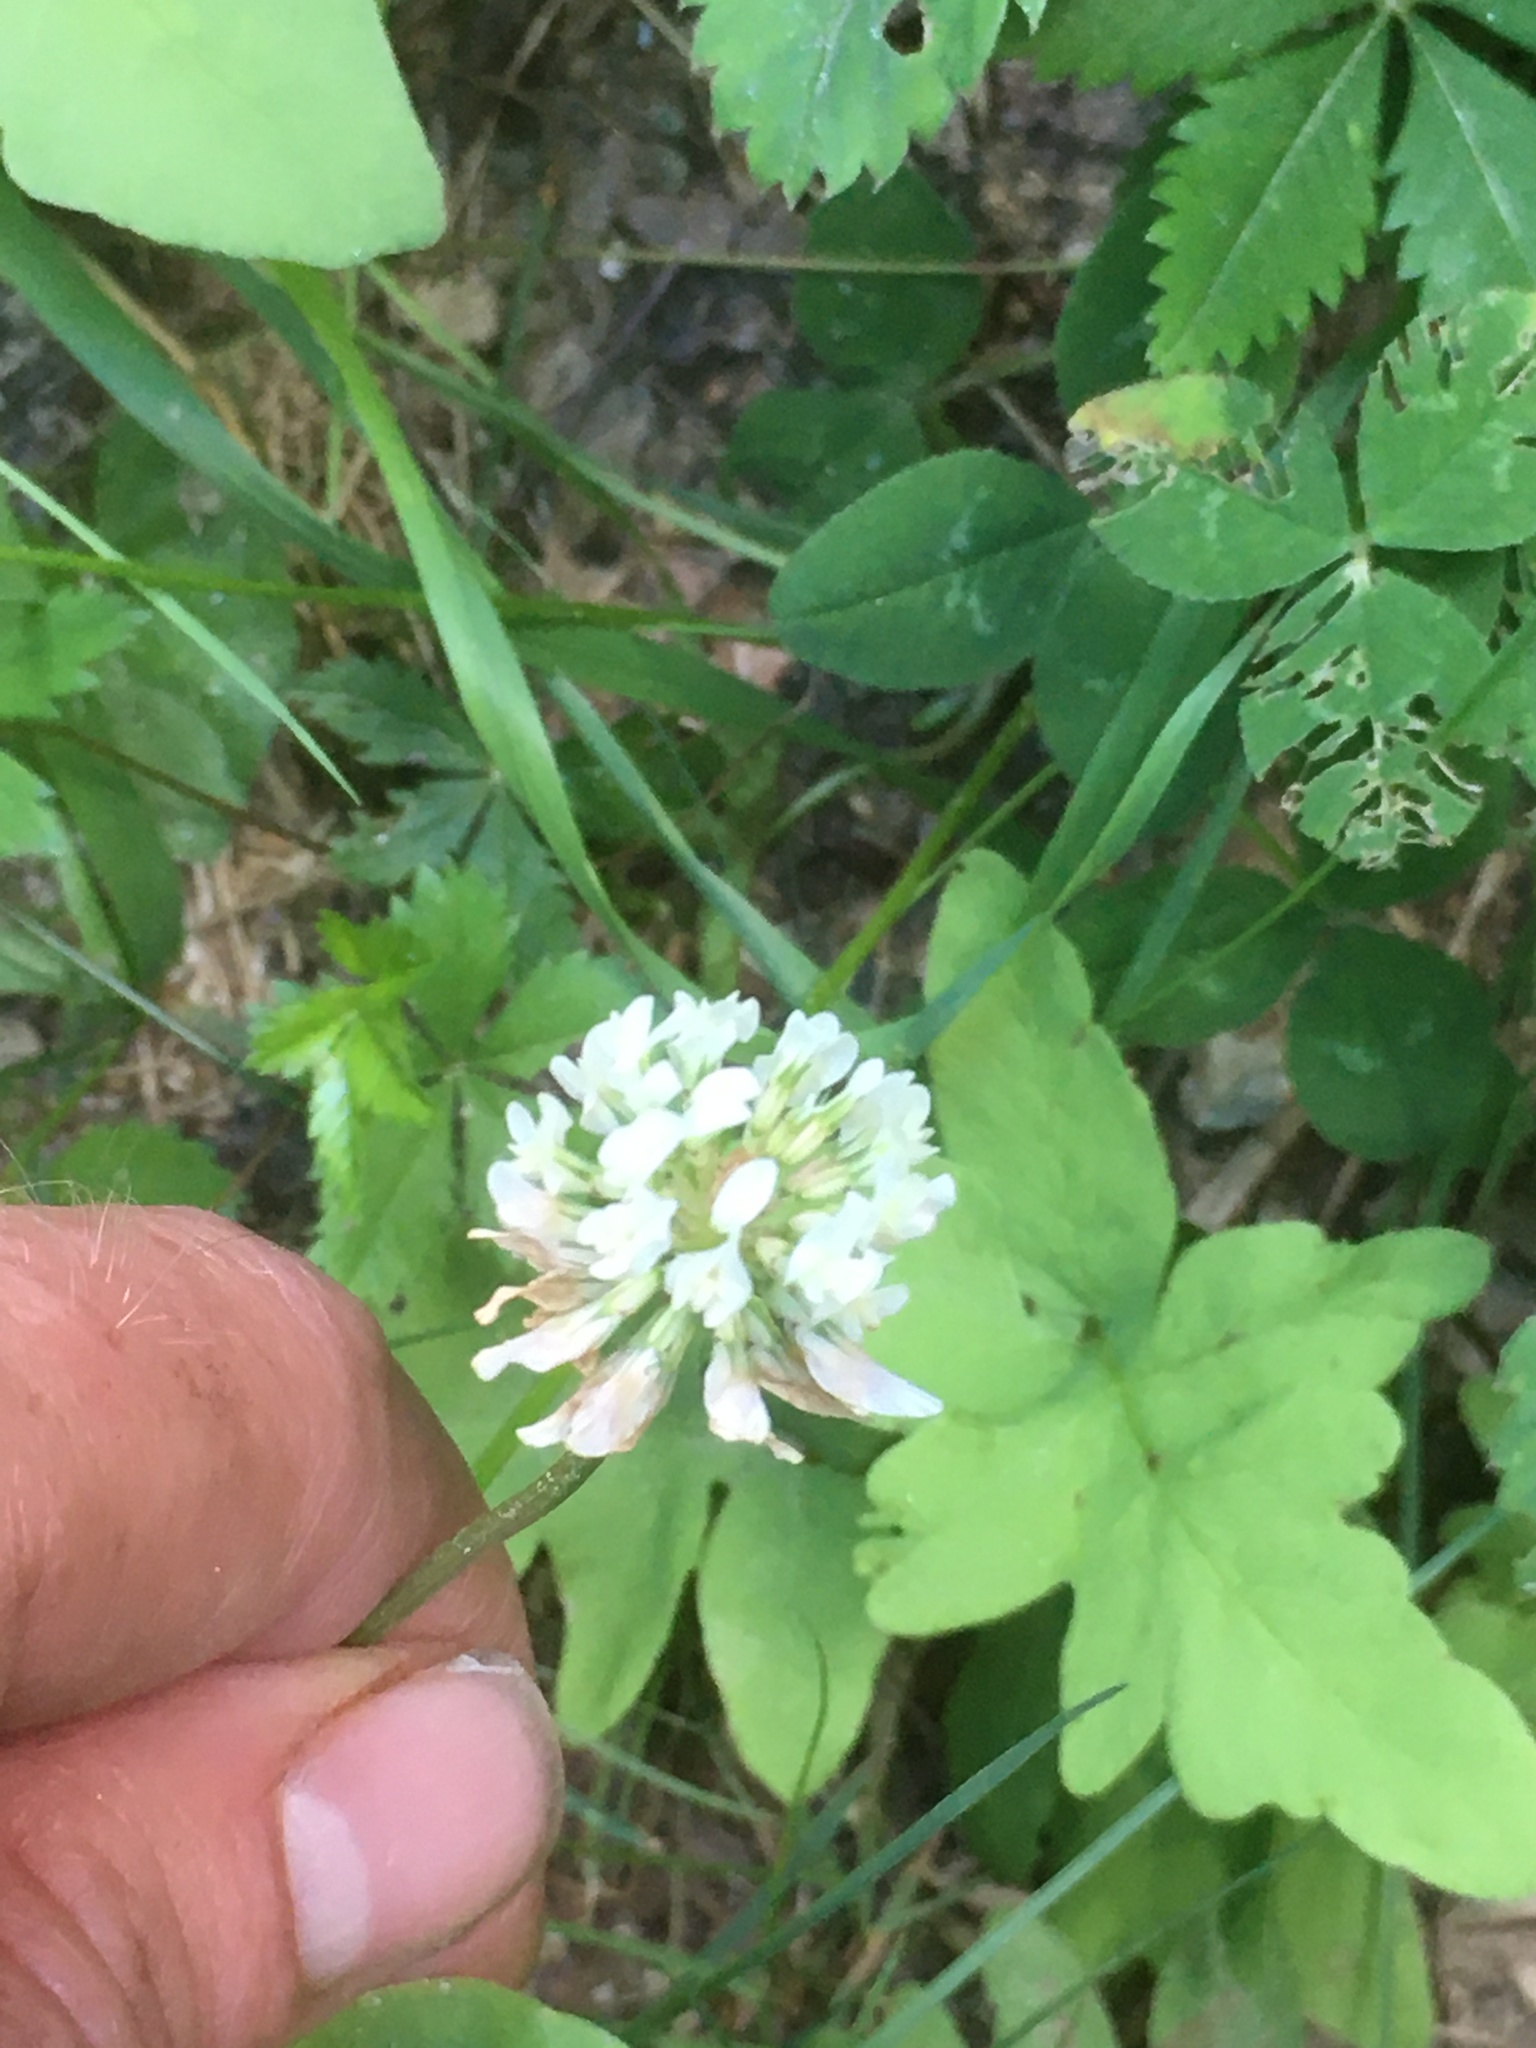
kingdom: Plantae
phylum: Tracheophyta
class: Magnoliopsida
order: Fabales
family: Fabaceae
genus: Trifolium
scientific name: Trifolium repens
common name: White clover
